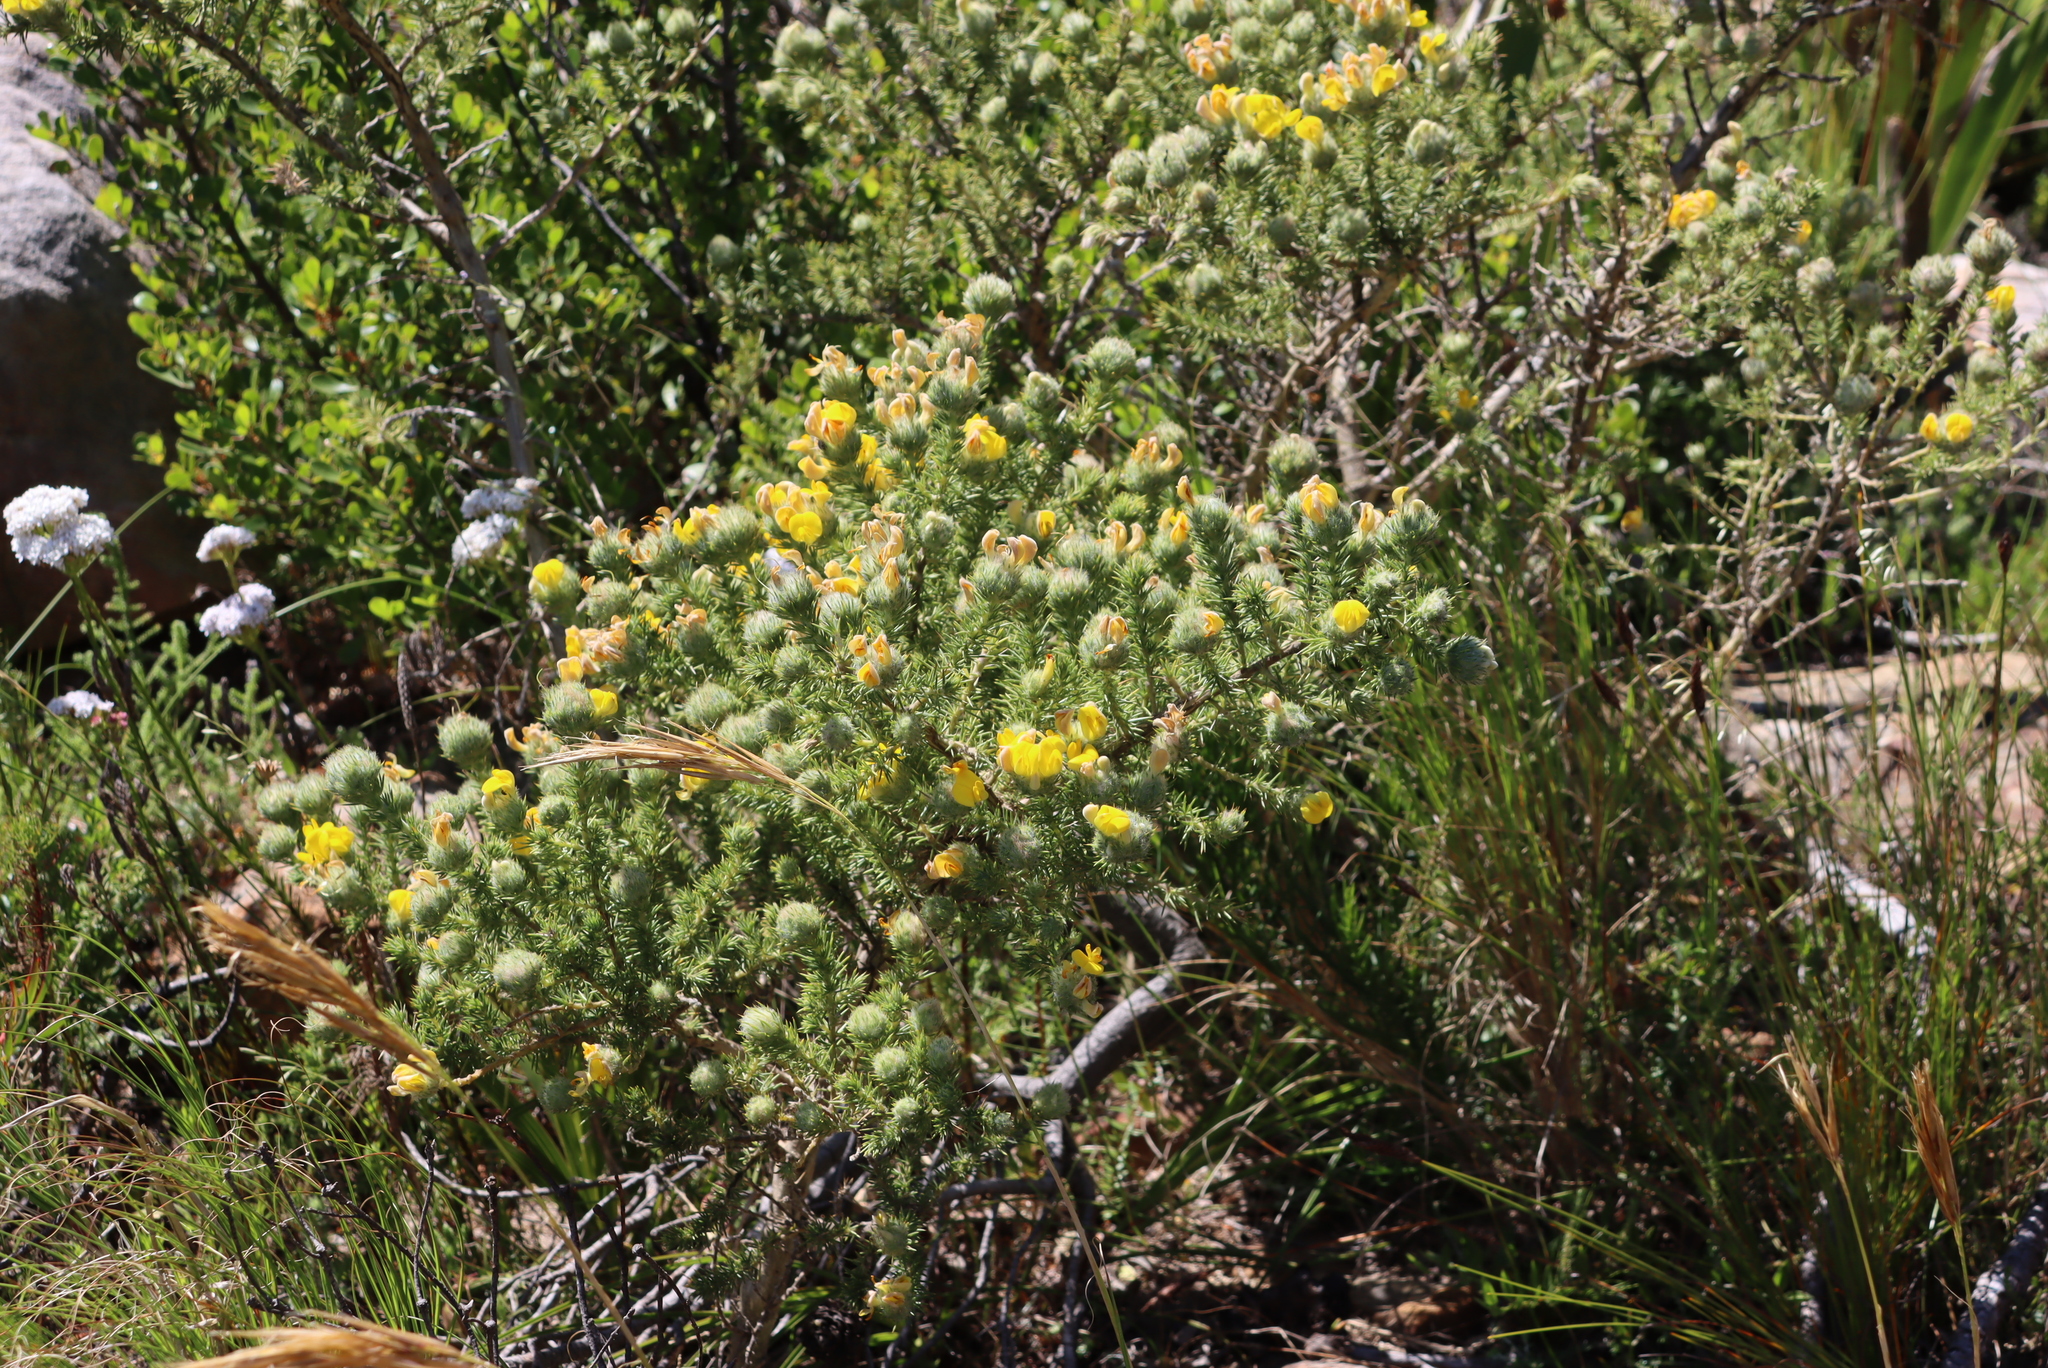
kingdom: Plantae
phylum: Tracheophyta
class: Magnoliopsida
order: Fabales
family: Fabaceae
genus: Aspalathus
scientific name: Aspalathus chenopoda
